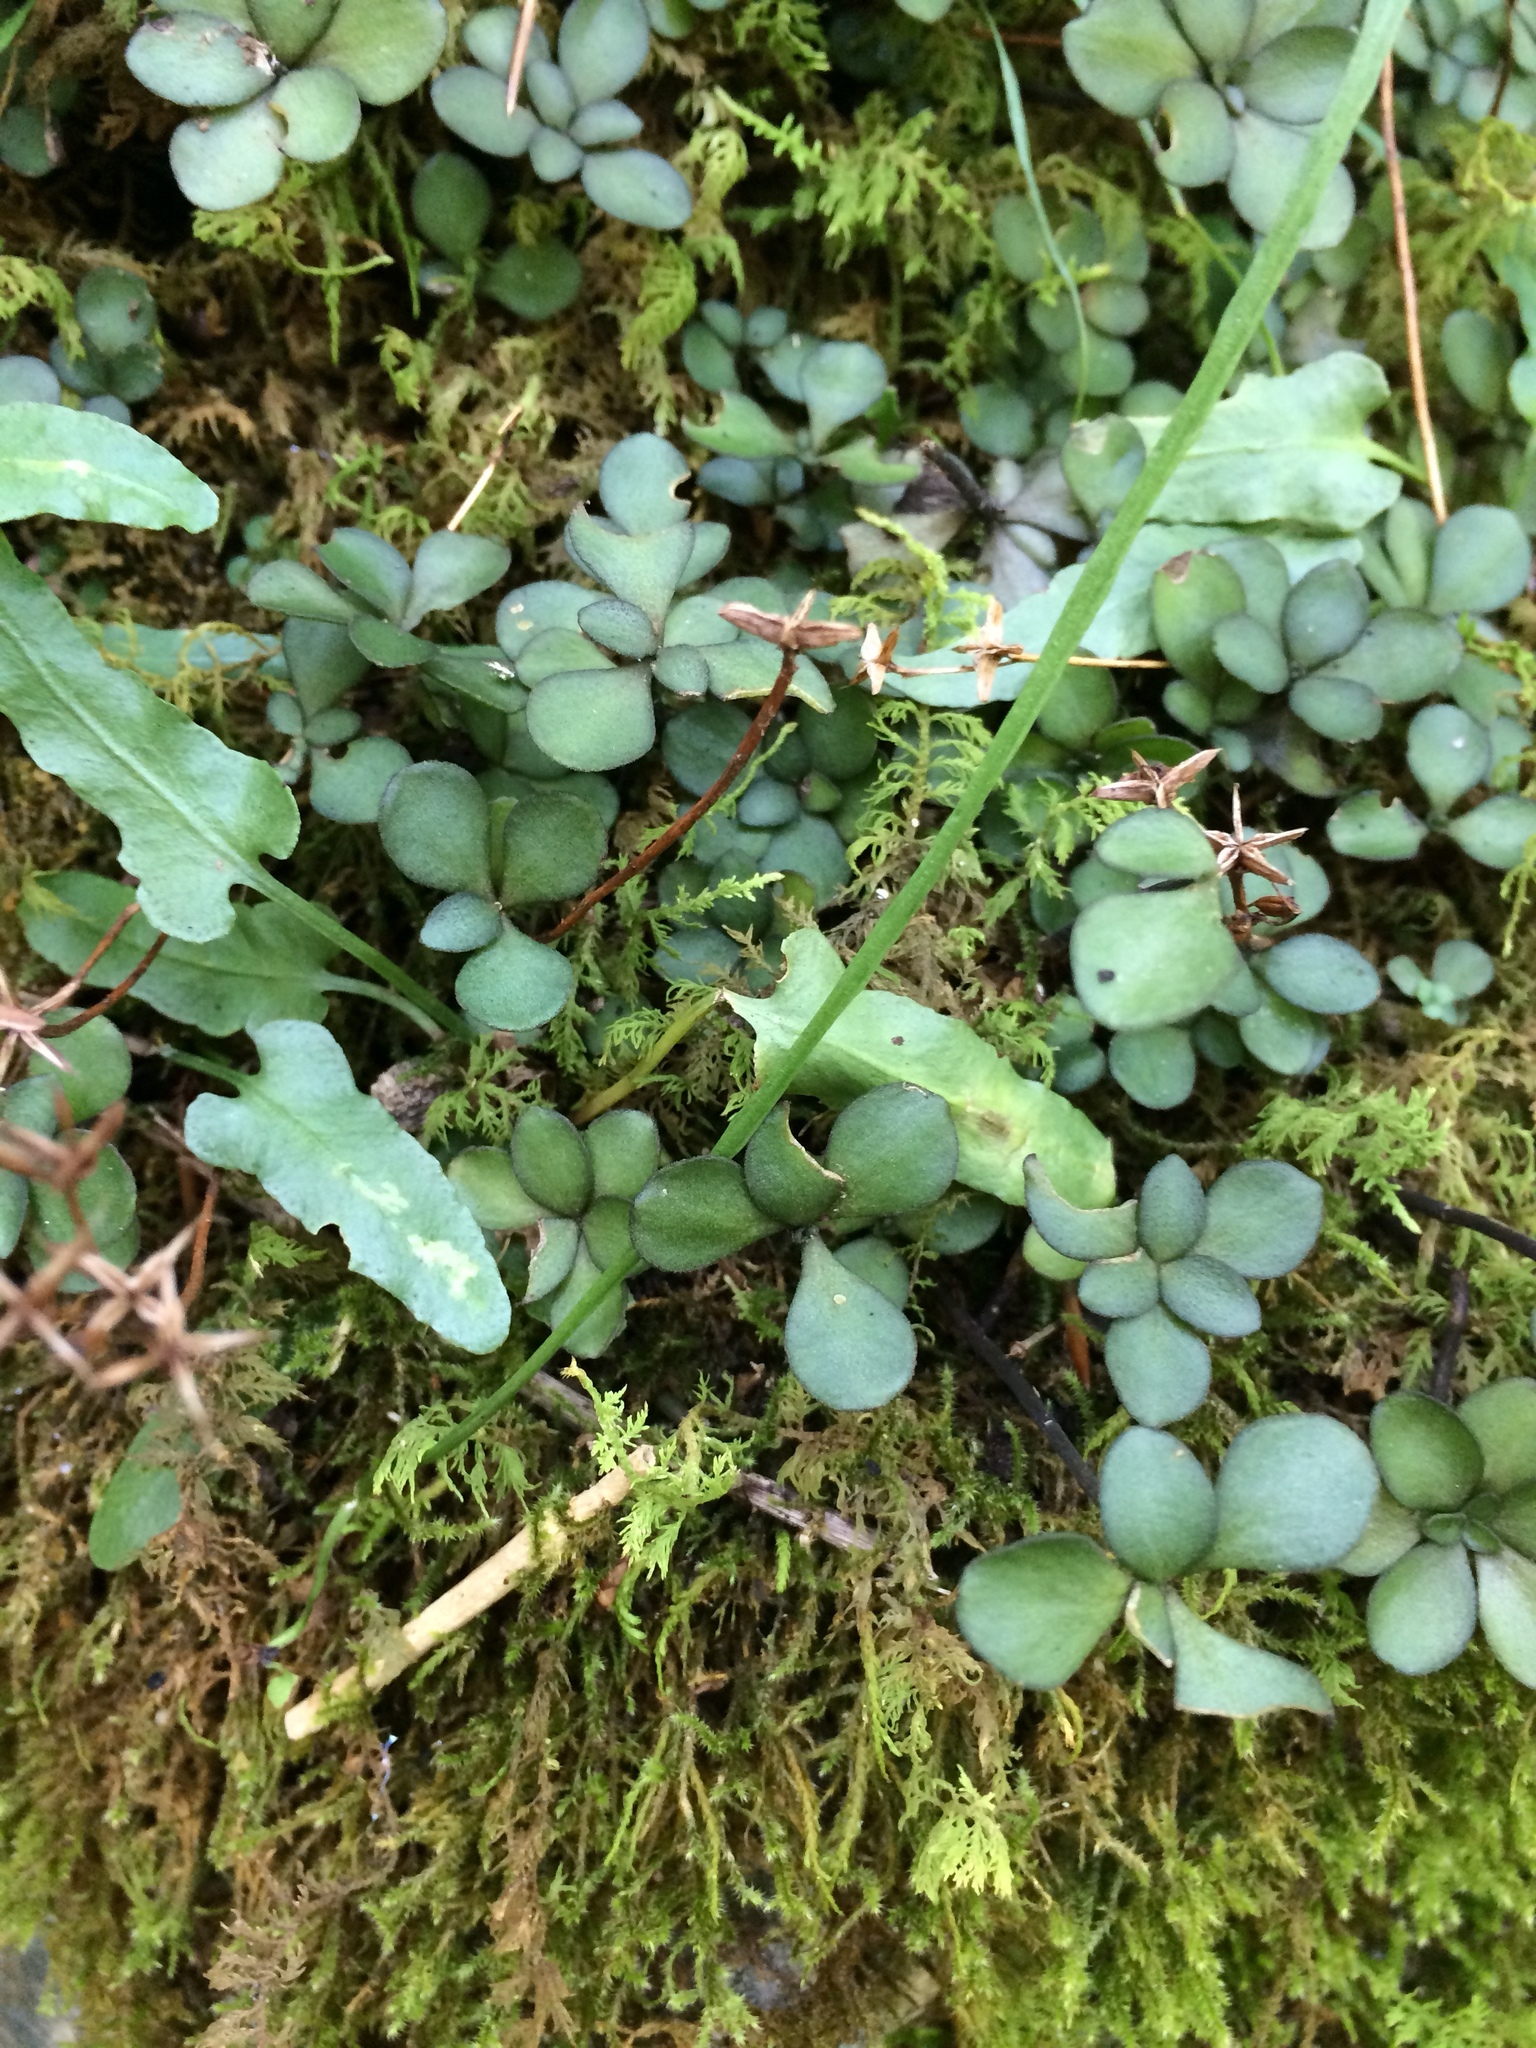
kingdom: Plantae
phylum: Tracheophyta
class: Magnoliopsida
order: Saxifragales
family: Crassulaceae
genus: Sedum
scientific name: Sedum ternatum
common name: Wild stonecrop
